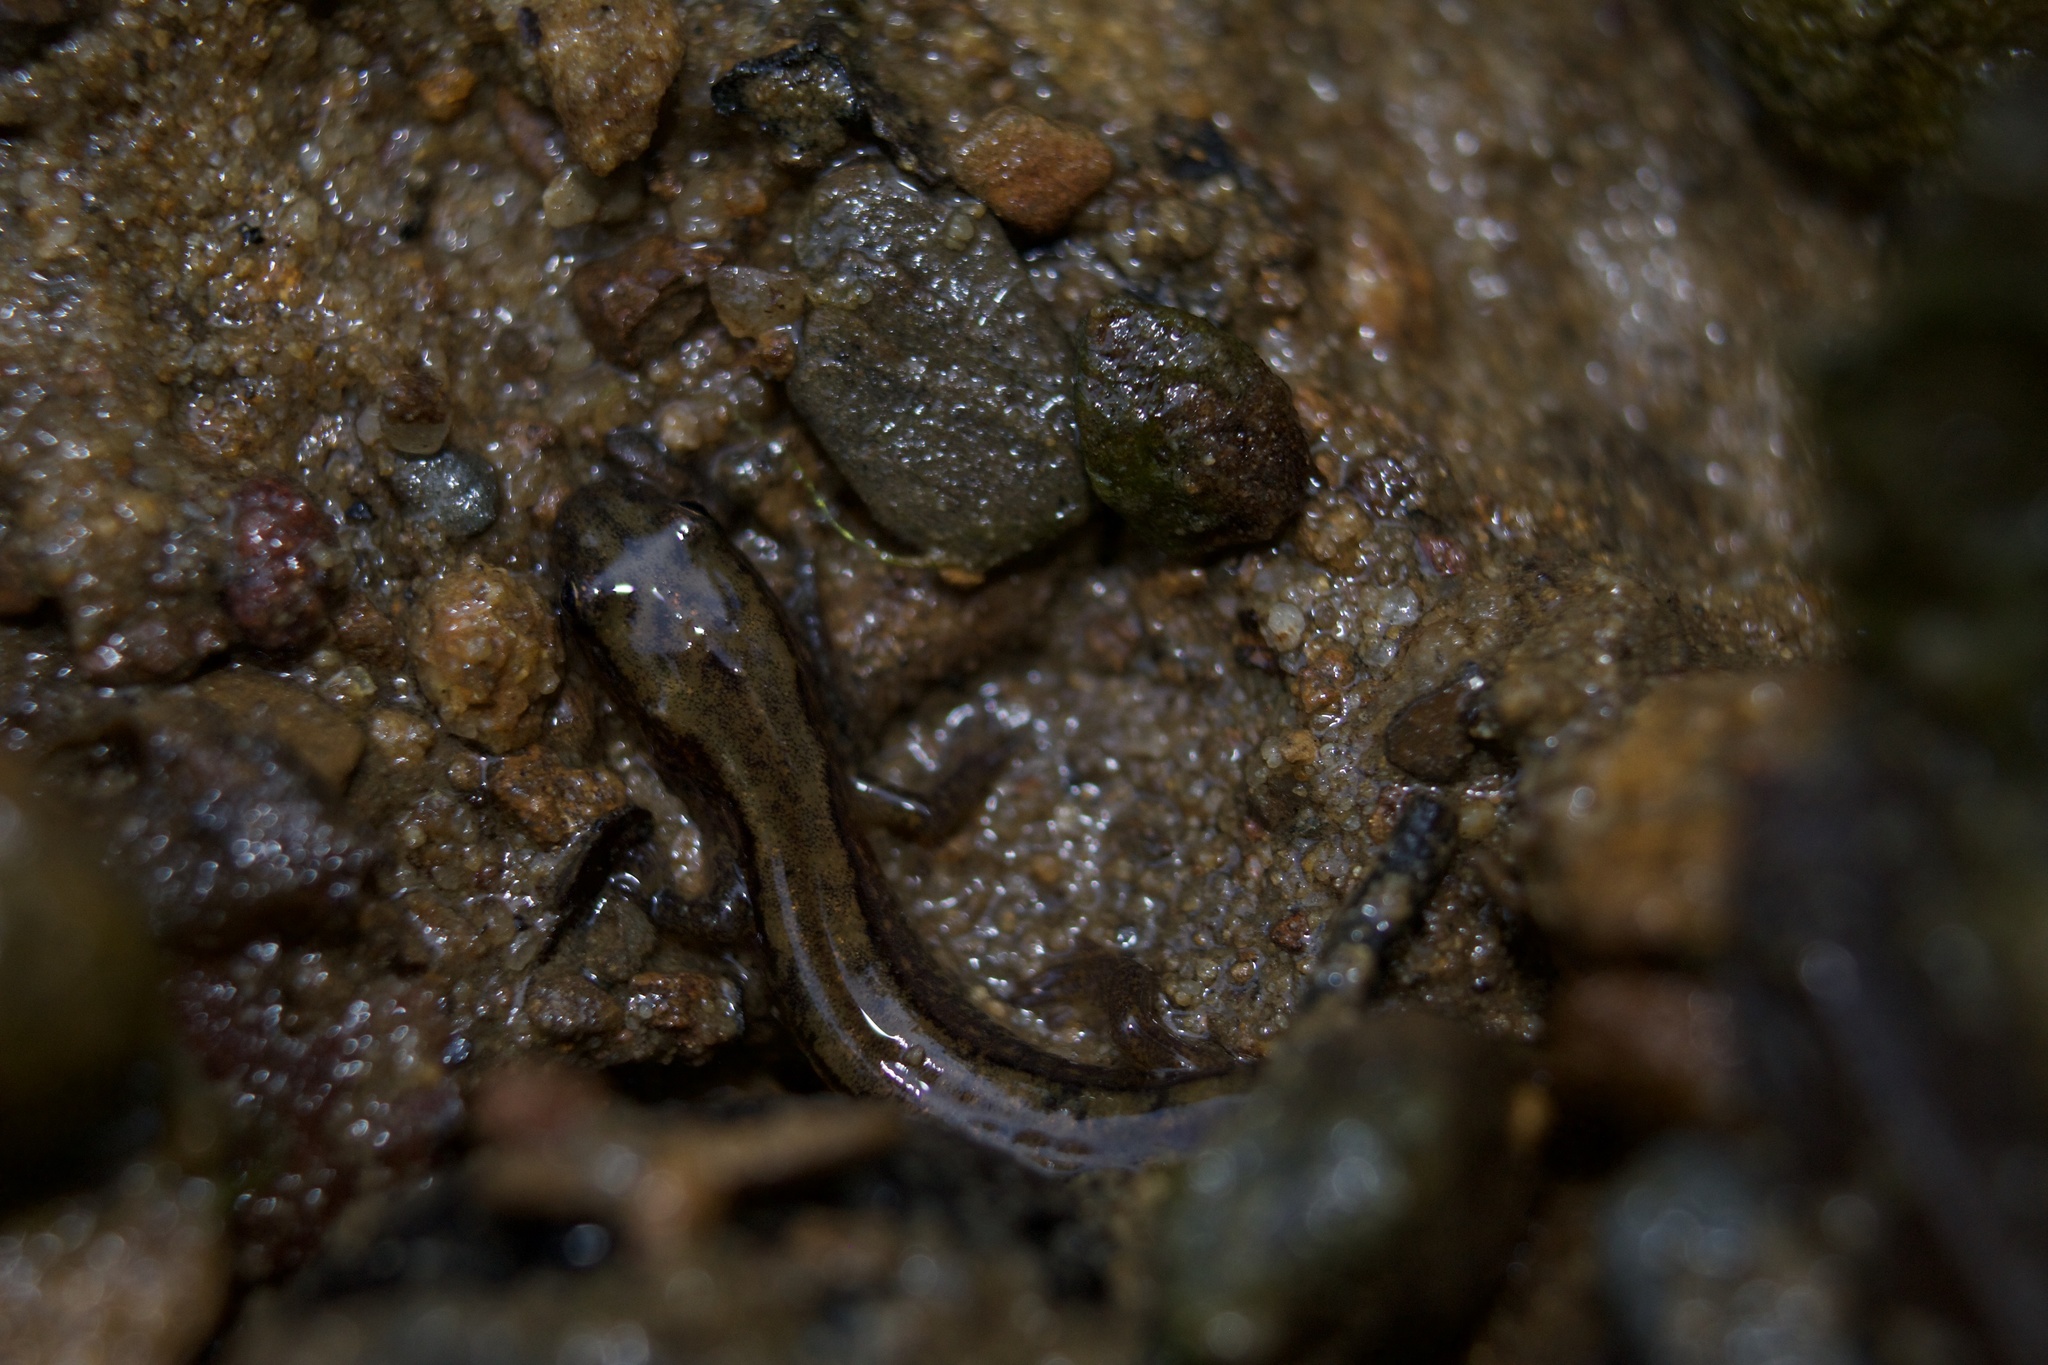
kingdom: Animalia
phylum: Chordata
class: Amphibia
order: Caudata
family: Plethodontidae
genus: Eurycea
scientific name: Eurycea bislineata
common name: Northern two-lined salamander
